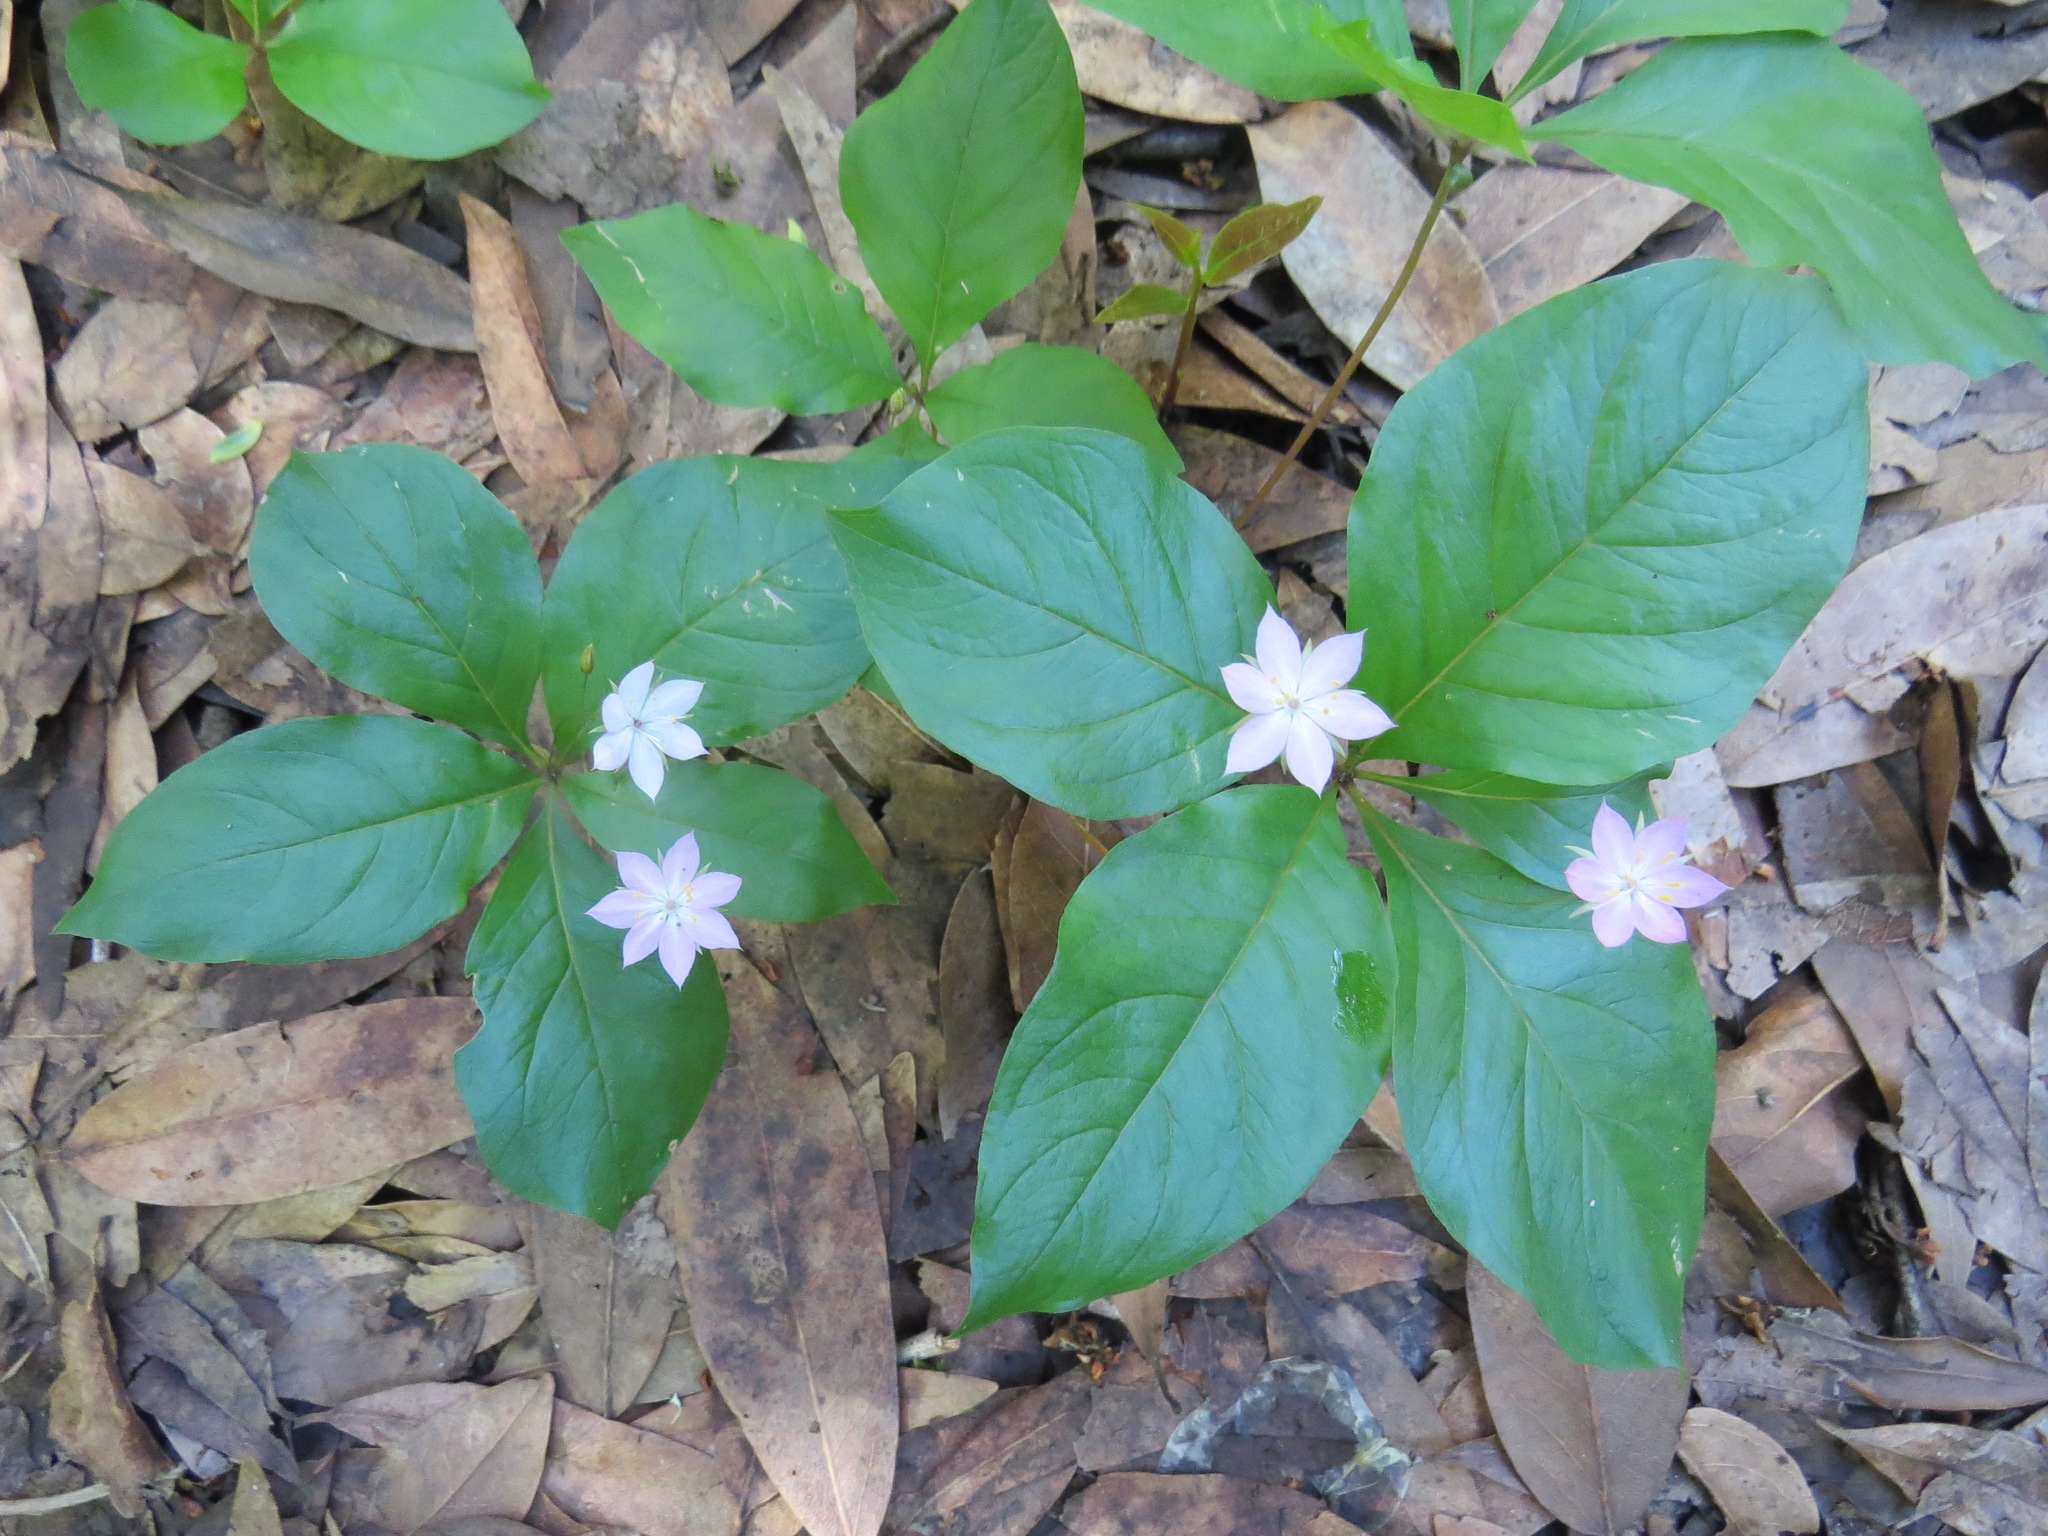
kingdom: Plantae
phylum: Tracheophyta
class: Magnoliopsida
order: Ericales
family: Primulaceae
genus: Lysimachia
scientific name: Lysimachia latifolia
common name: Pacific starflower
